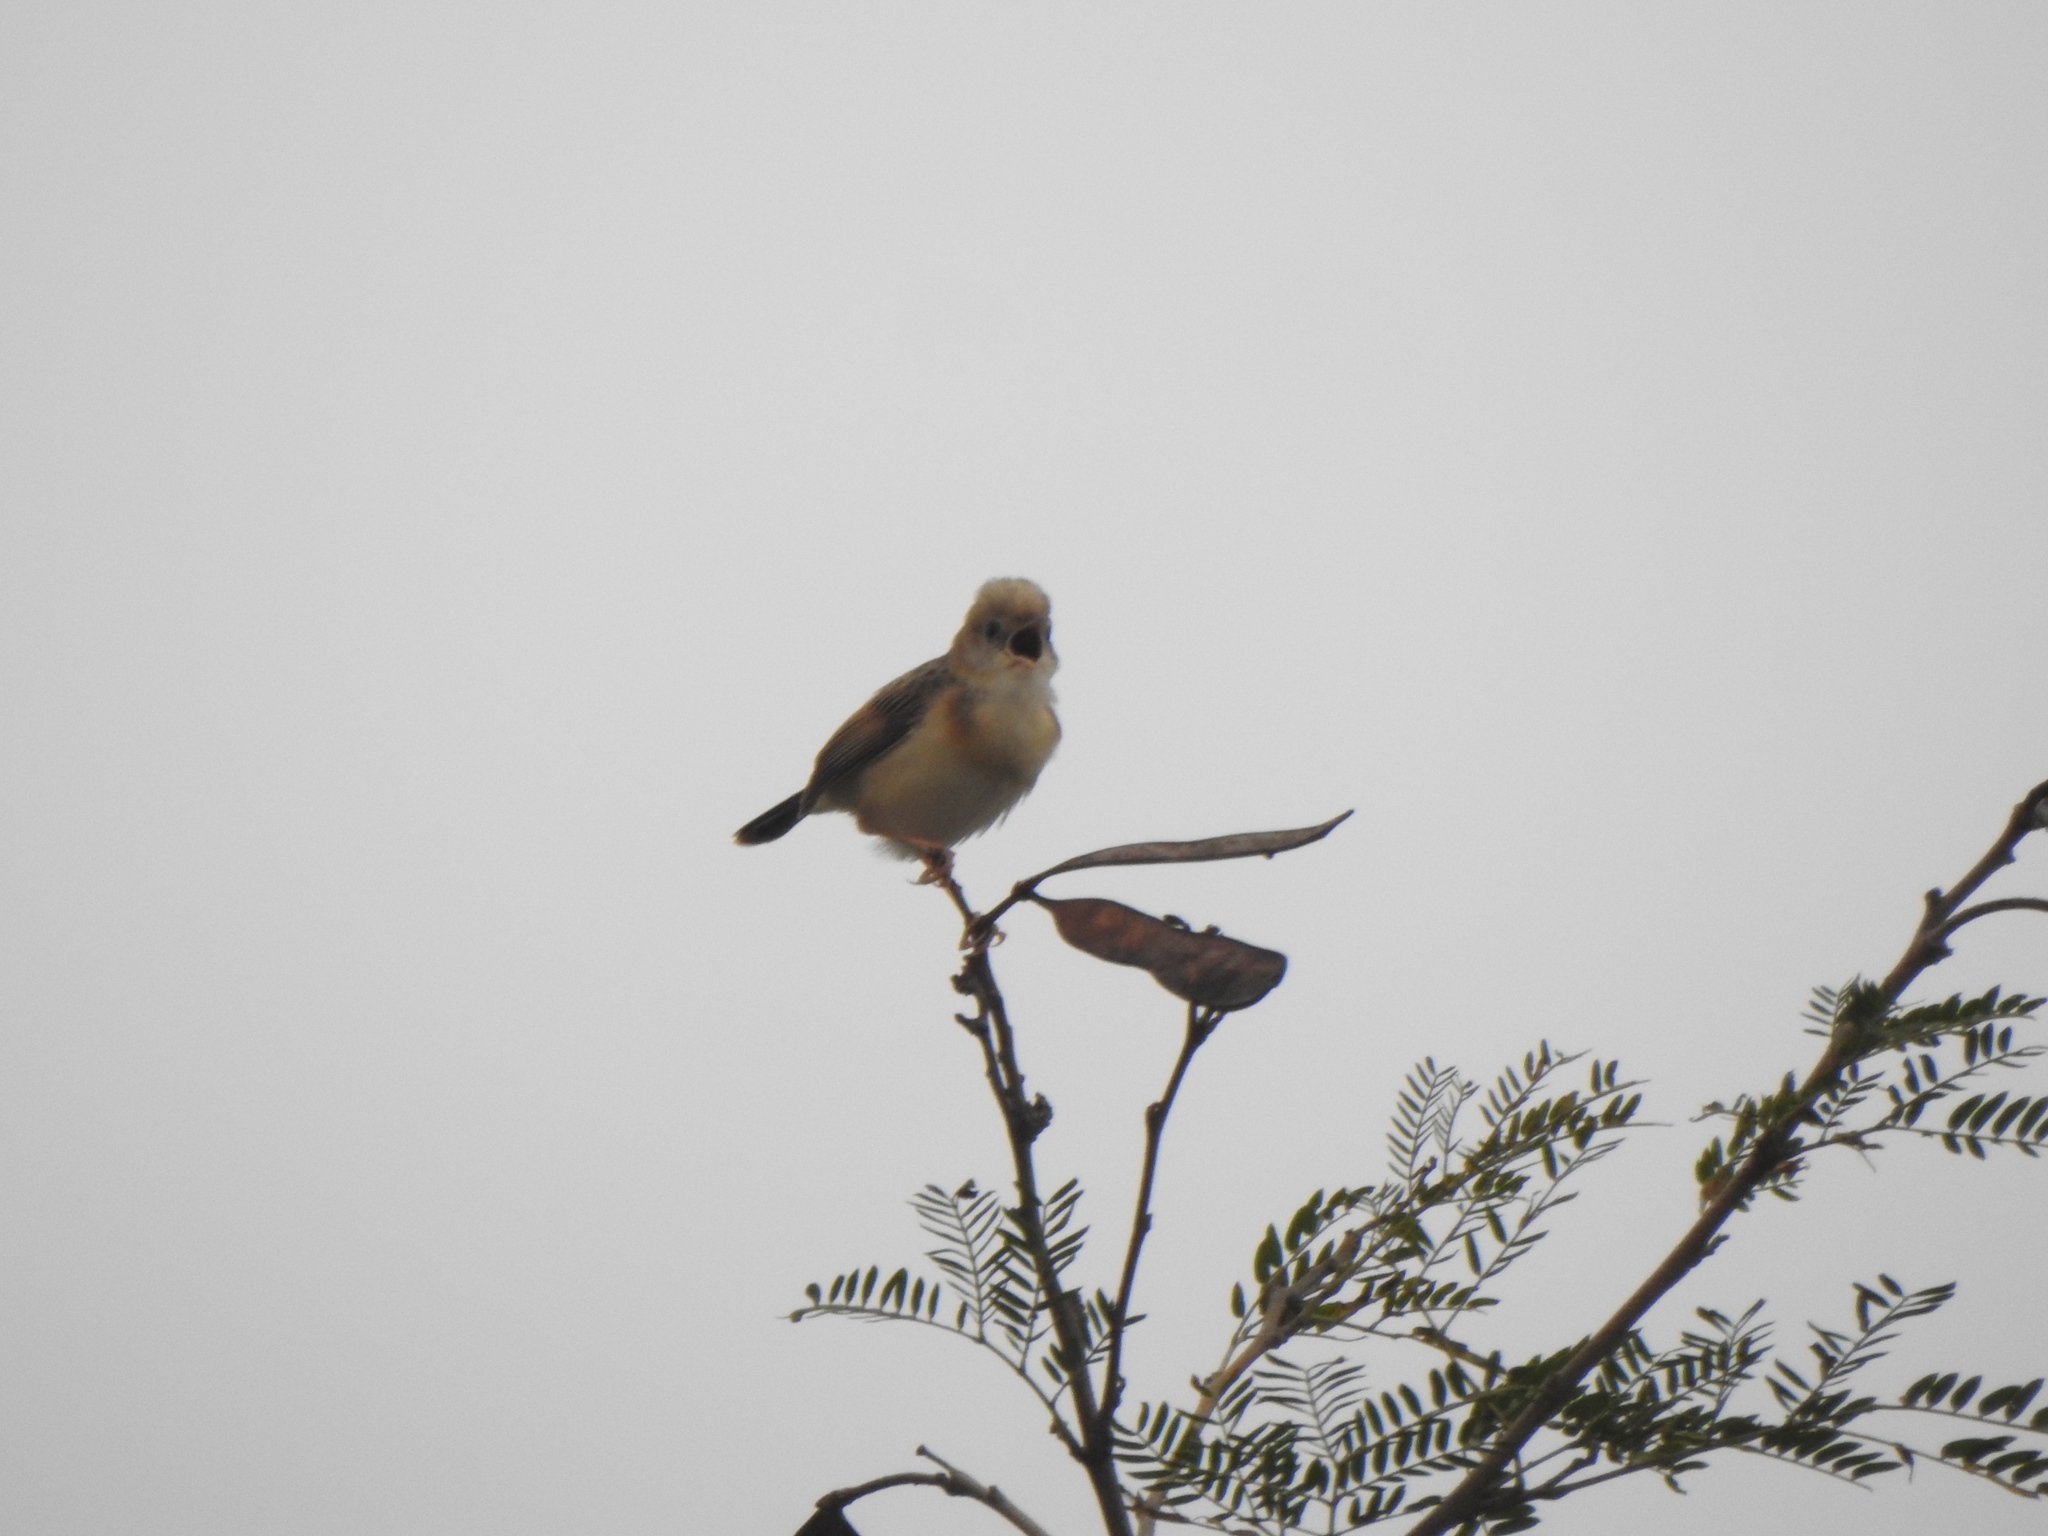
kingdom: Animalia
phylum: Chordata
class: Aves
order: Passeriformes
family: Cisticolidae
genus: Cisticola
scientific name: Cisticola exilis
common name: Golden-headed cisticola
